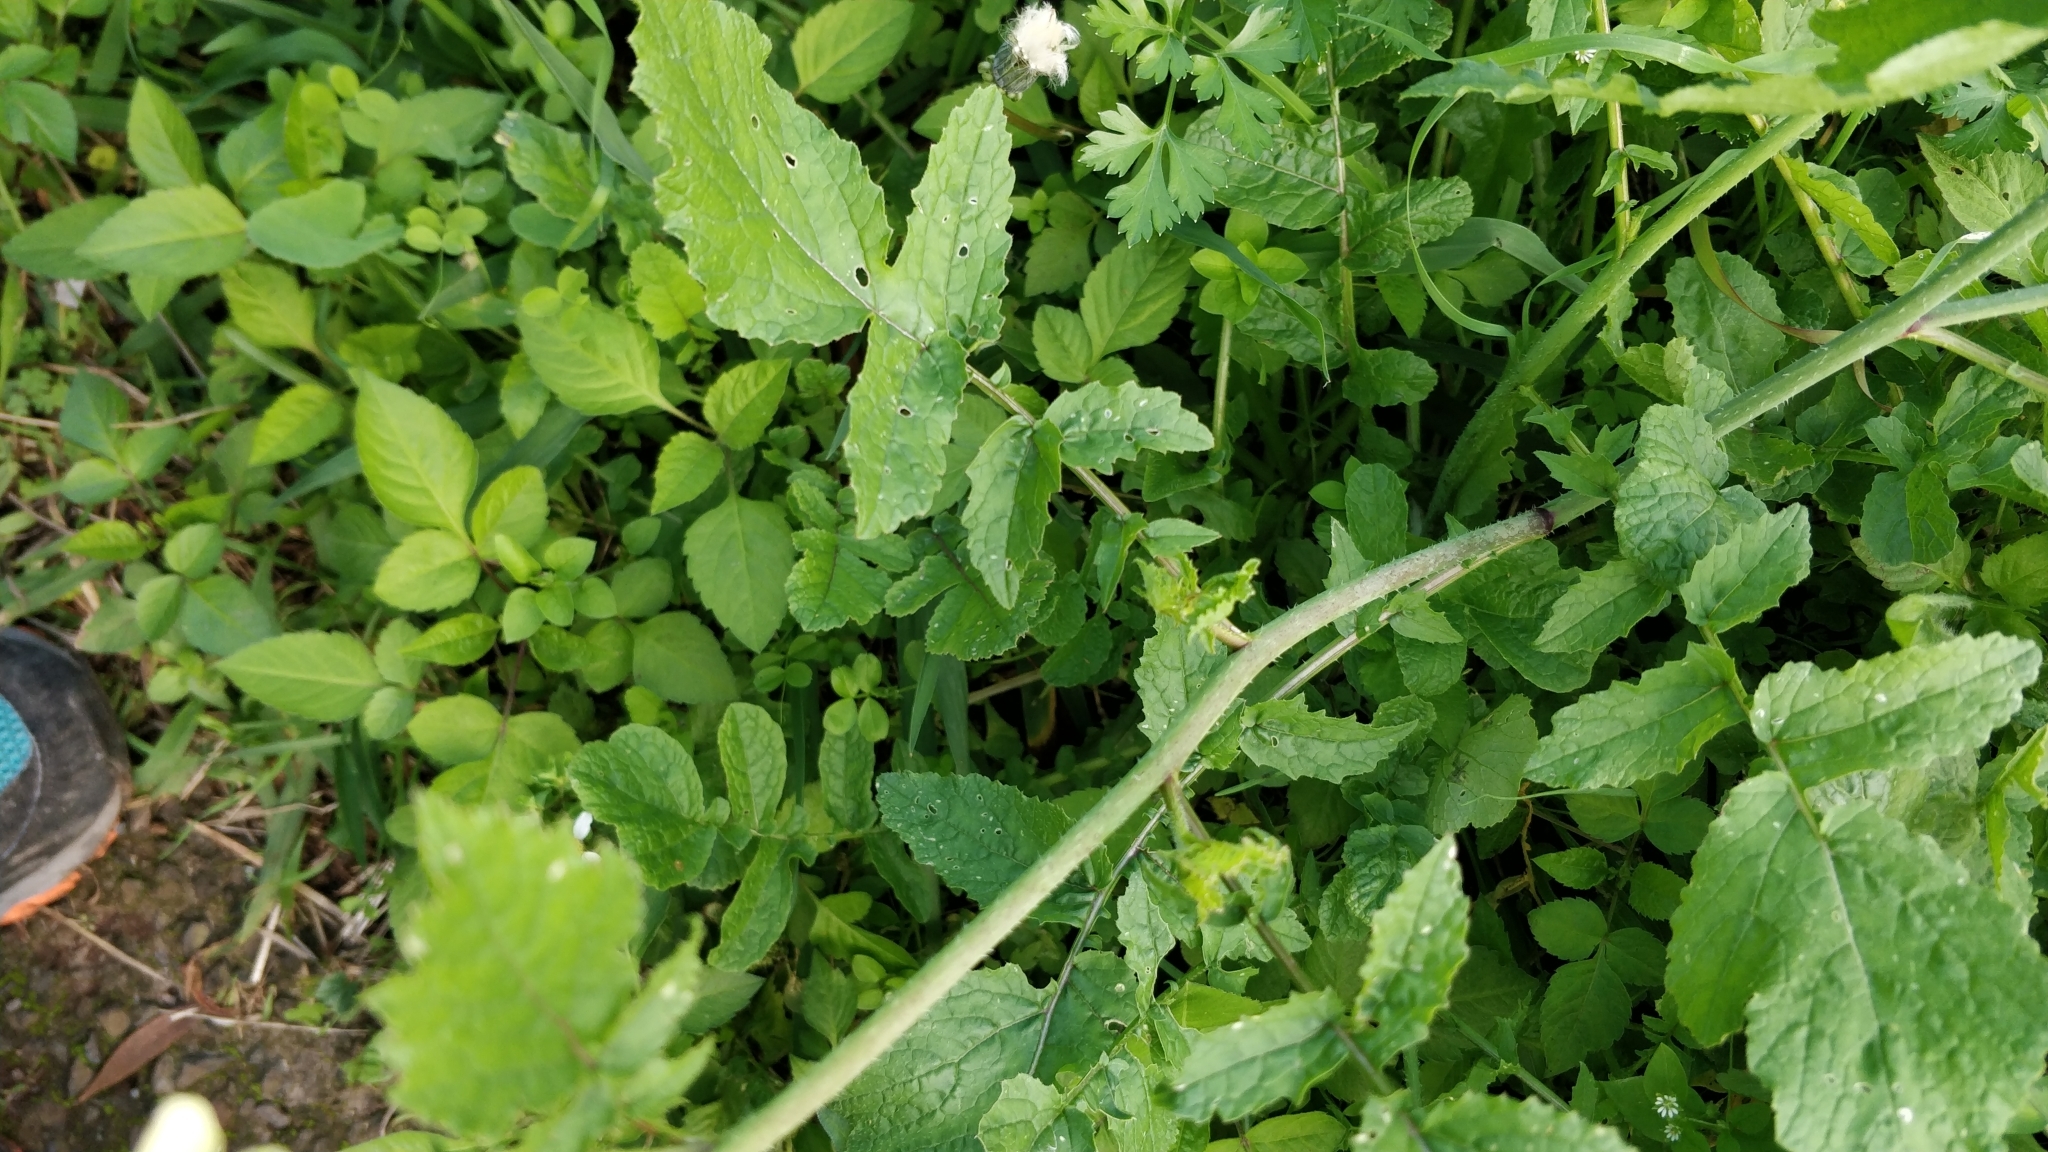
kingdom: Plantae
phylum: Tracheophyta
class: Magnoliopsida
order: Brassicales
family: Brassicaceae
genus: Eruca
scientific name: Eruca vesicaria
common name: Garden rocket
